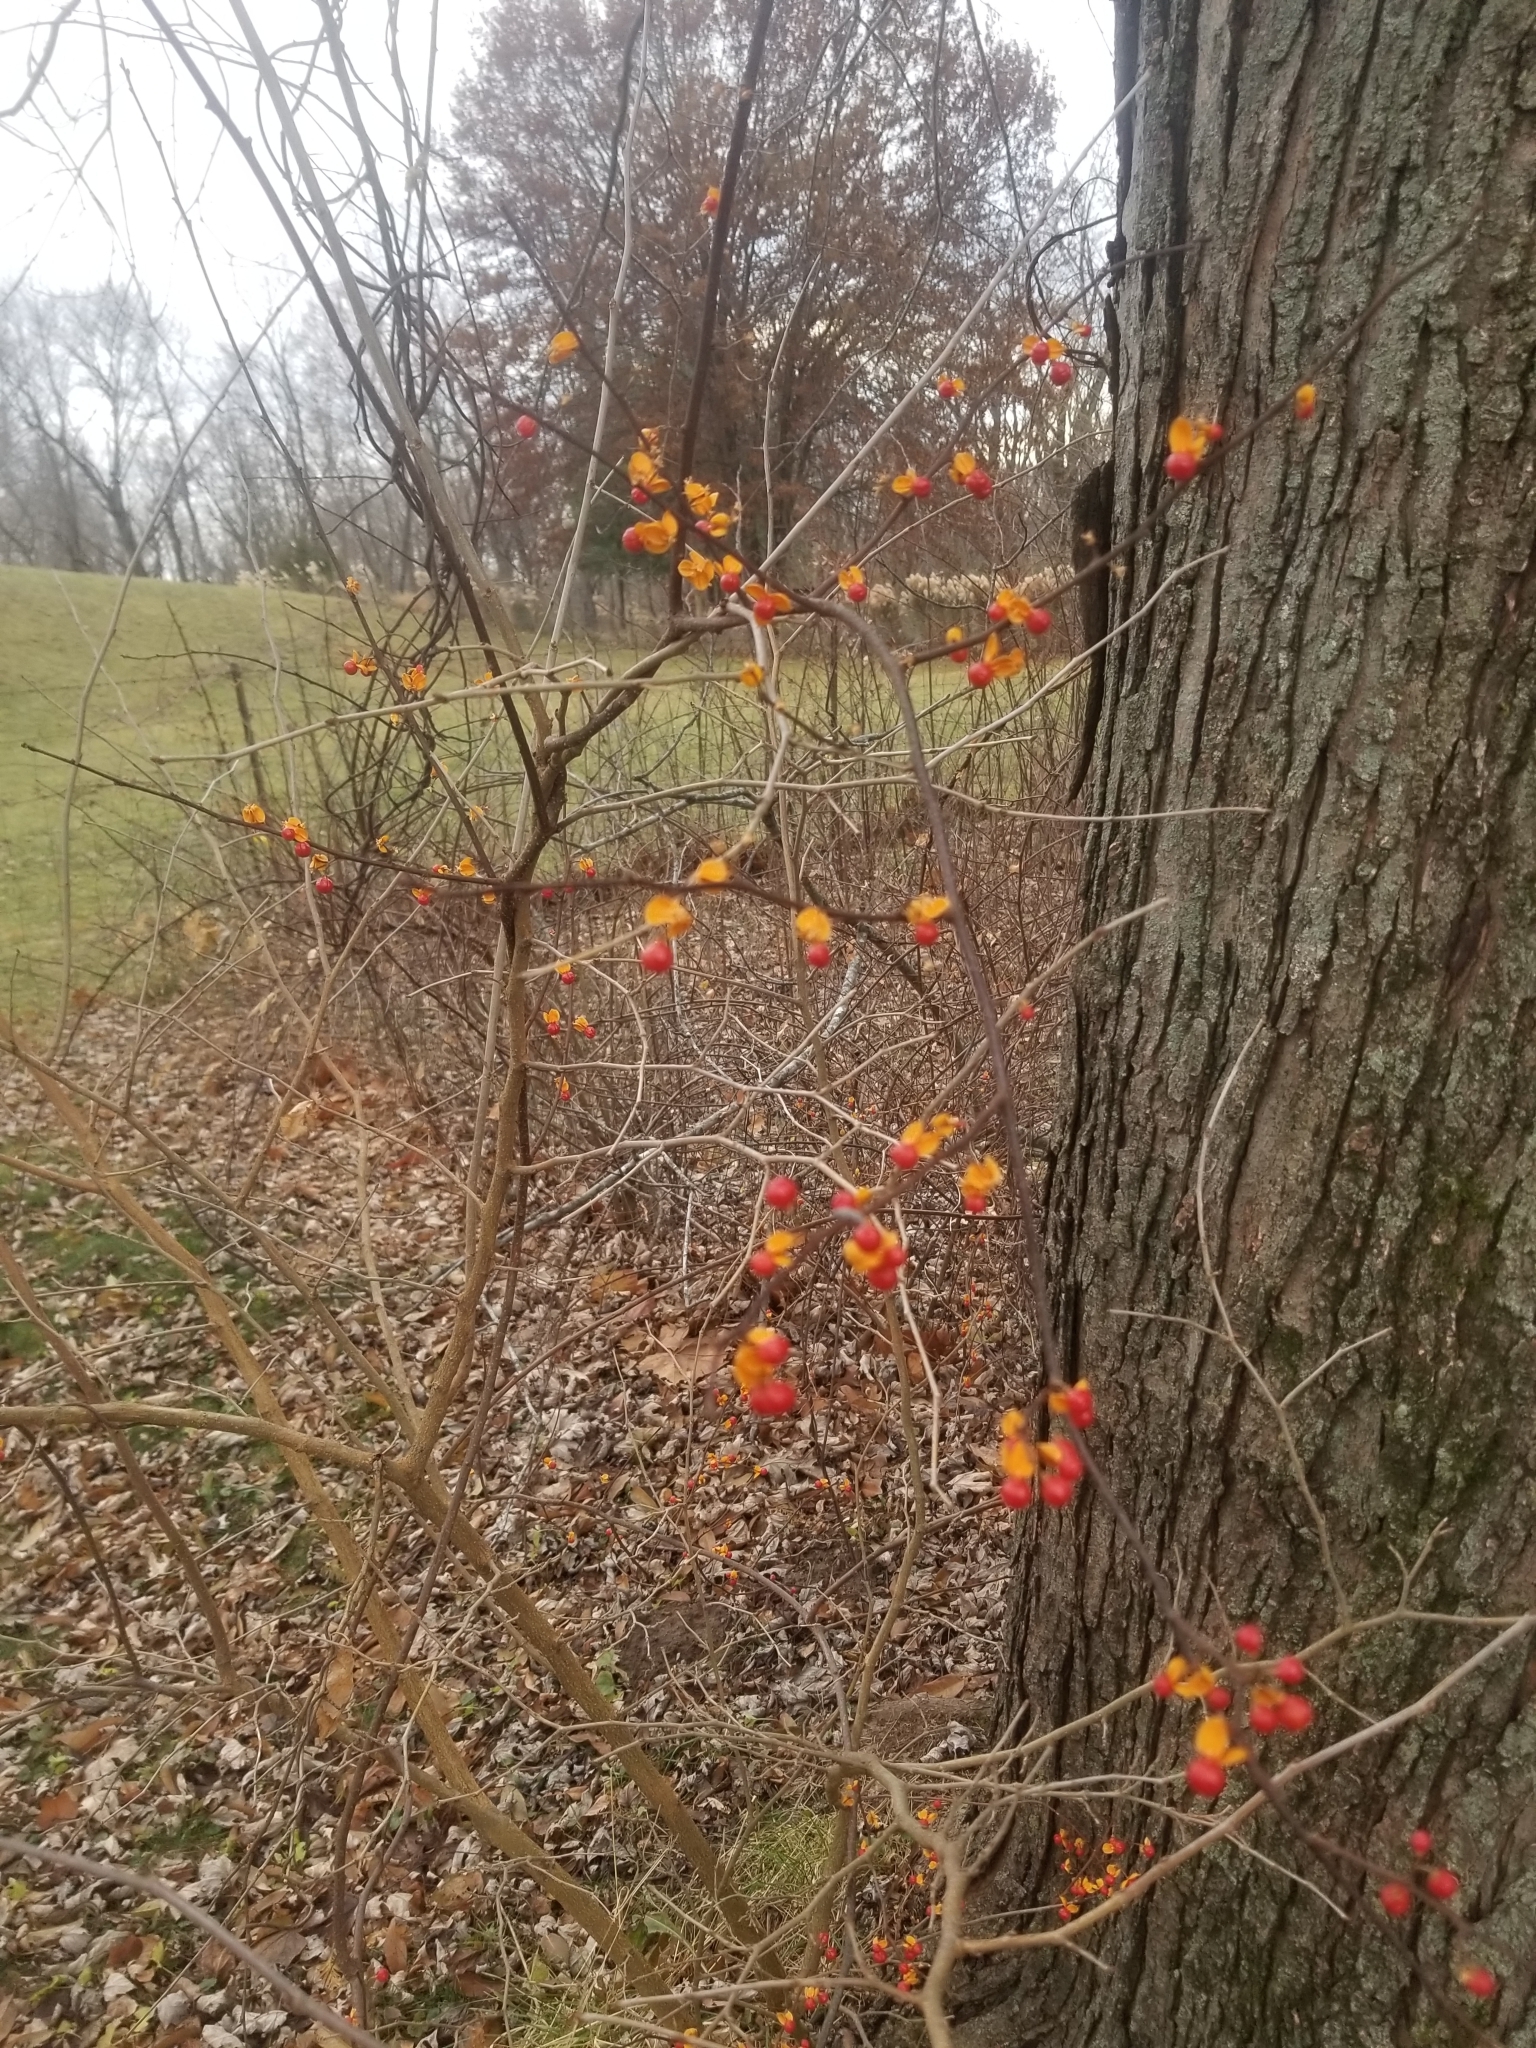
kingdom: Plantae
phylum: Tracheophyta
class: Magnoliopsida
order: Celastrales
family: Celastraceae
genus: Celastrus
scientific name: Celastrus orbiculatus
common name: Oriental bittersweet
